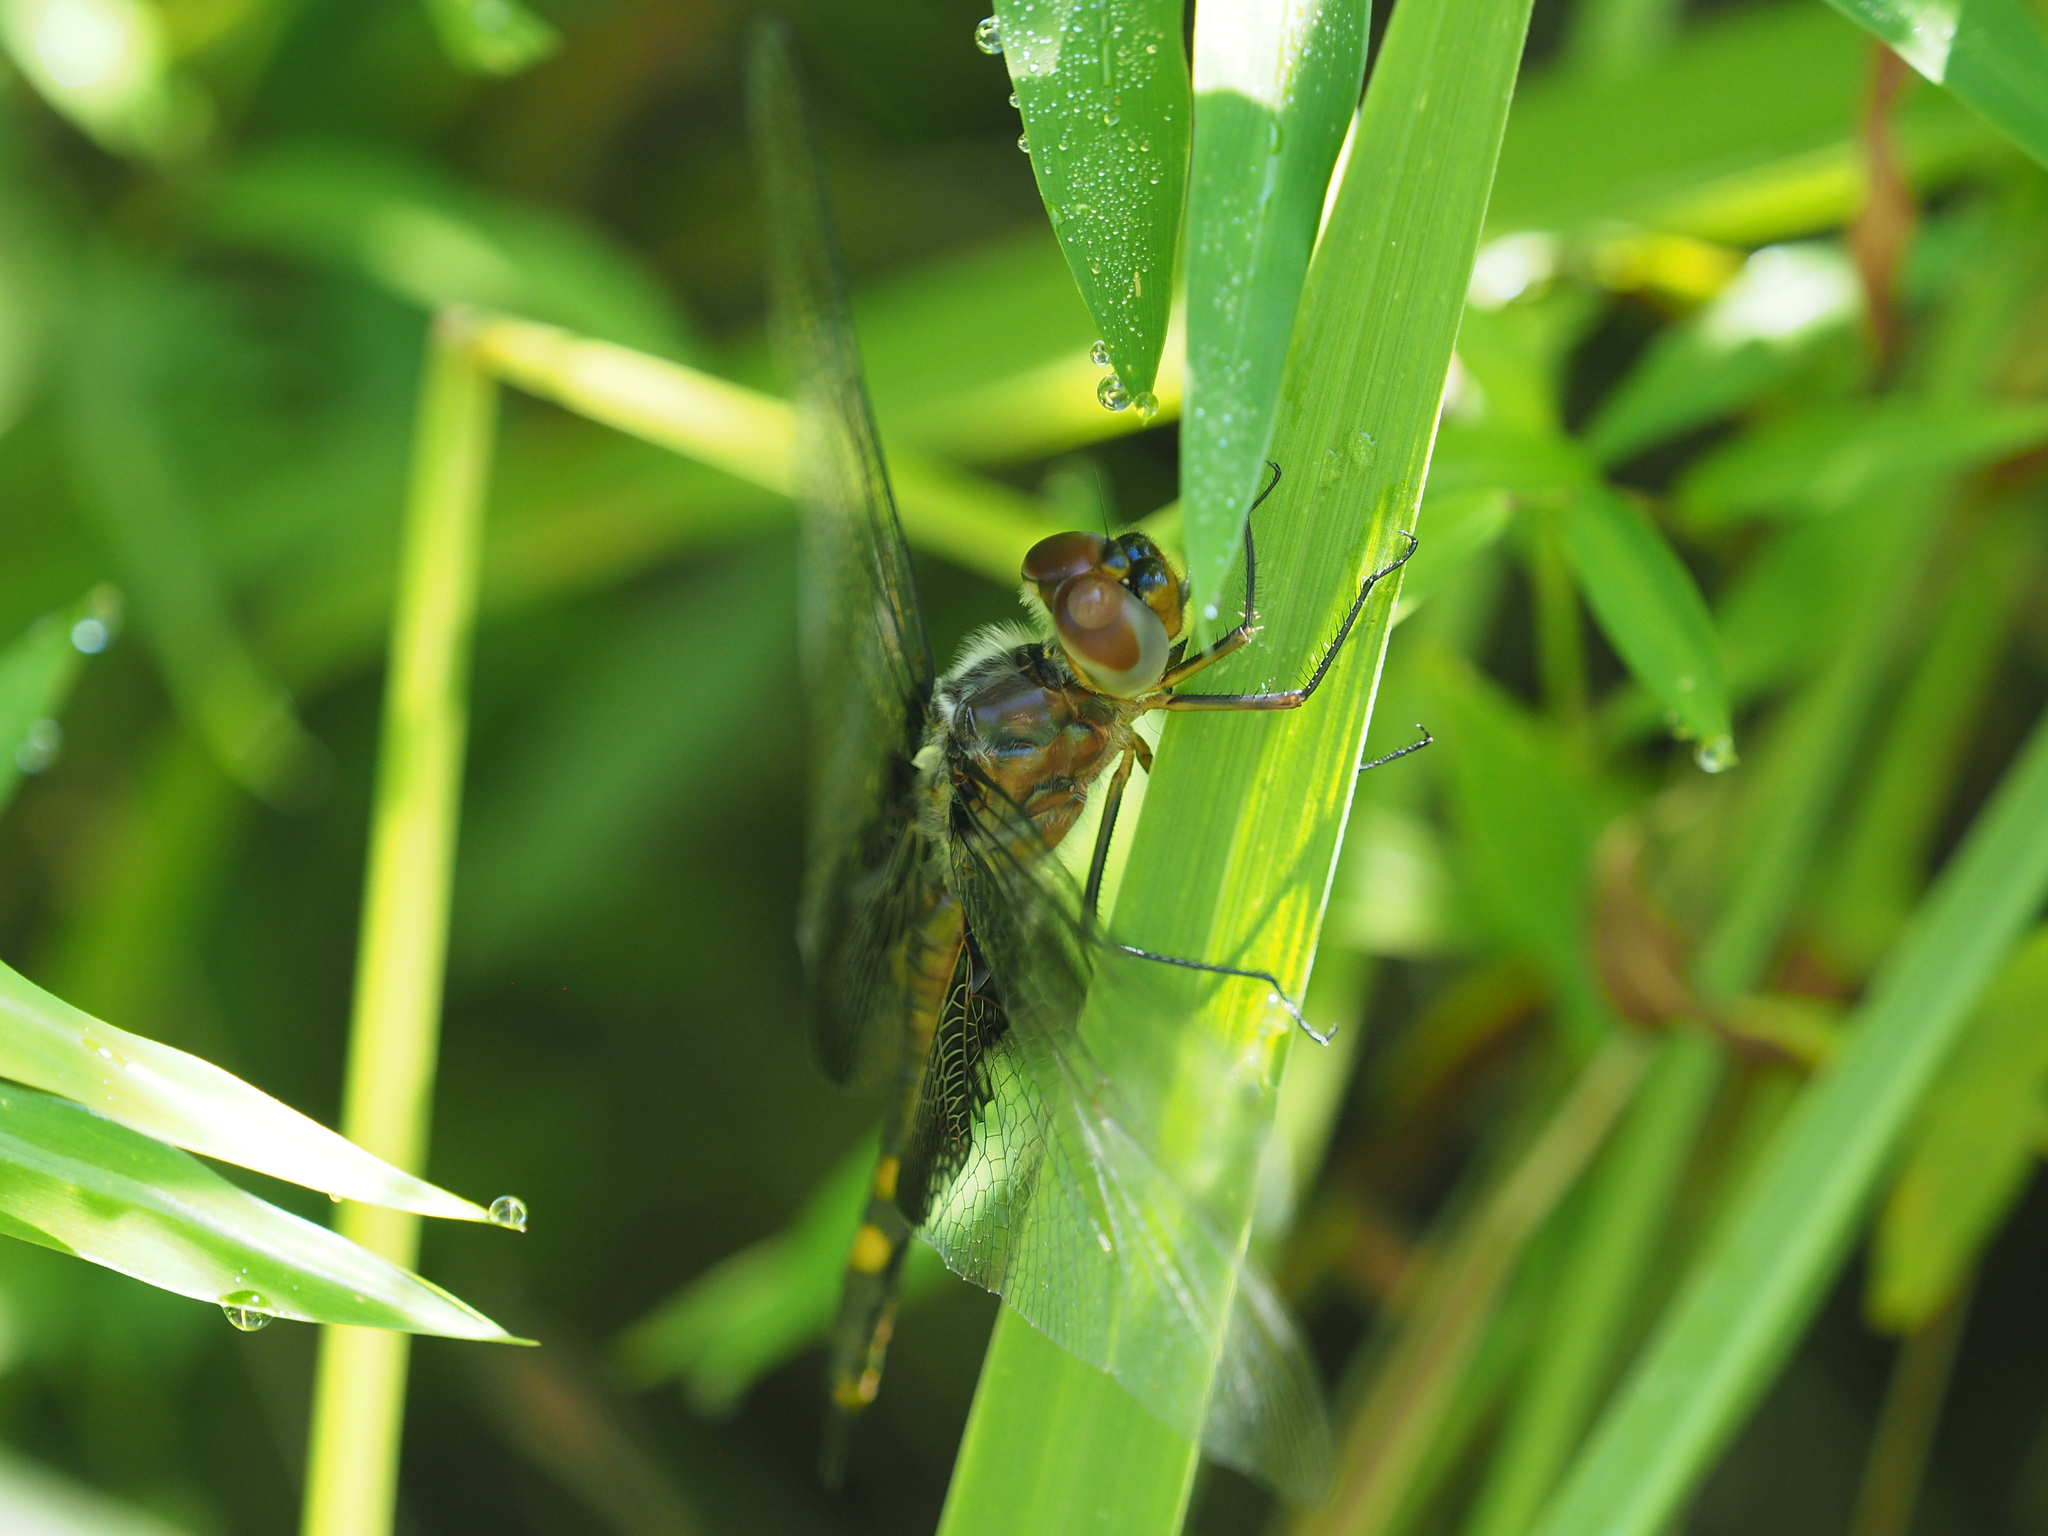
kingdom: Animalia
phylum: Arthropoda
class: Insecta
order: Odonata
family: Libellulidae
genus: Tramea
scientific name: Tramea lacerata
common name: Black saddlebags
